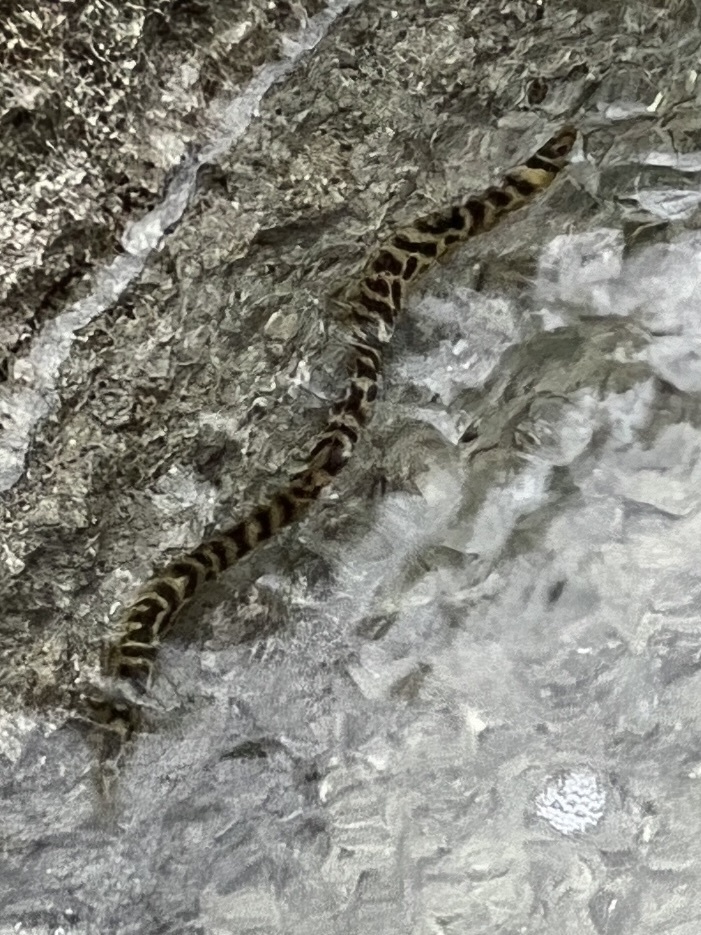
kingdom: Animalia
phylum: Chordata
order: Anguilliformes
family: Muraenidae
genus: Echidna
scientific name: Echidna catenata
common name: Chain moray
